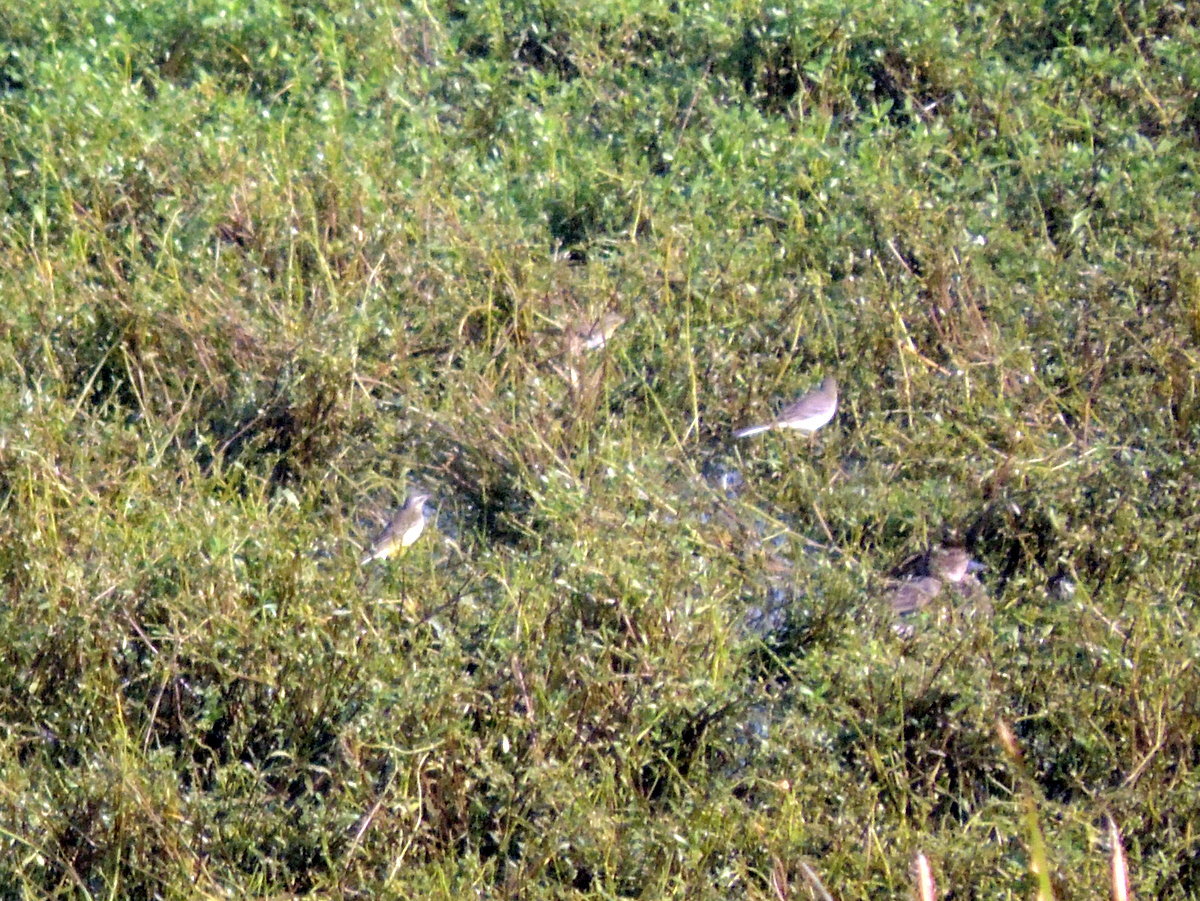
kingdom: Animalia
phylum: Chordata
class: Aves
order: Passeriformes
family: Motacillidae
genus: Motacilla
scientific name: Motacilla flava
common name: Western yellow wagtail
